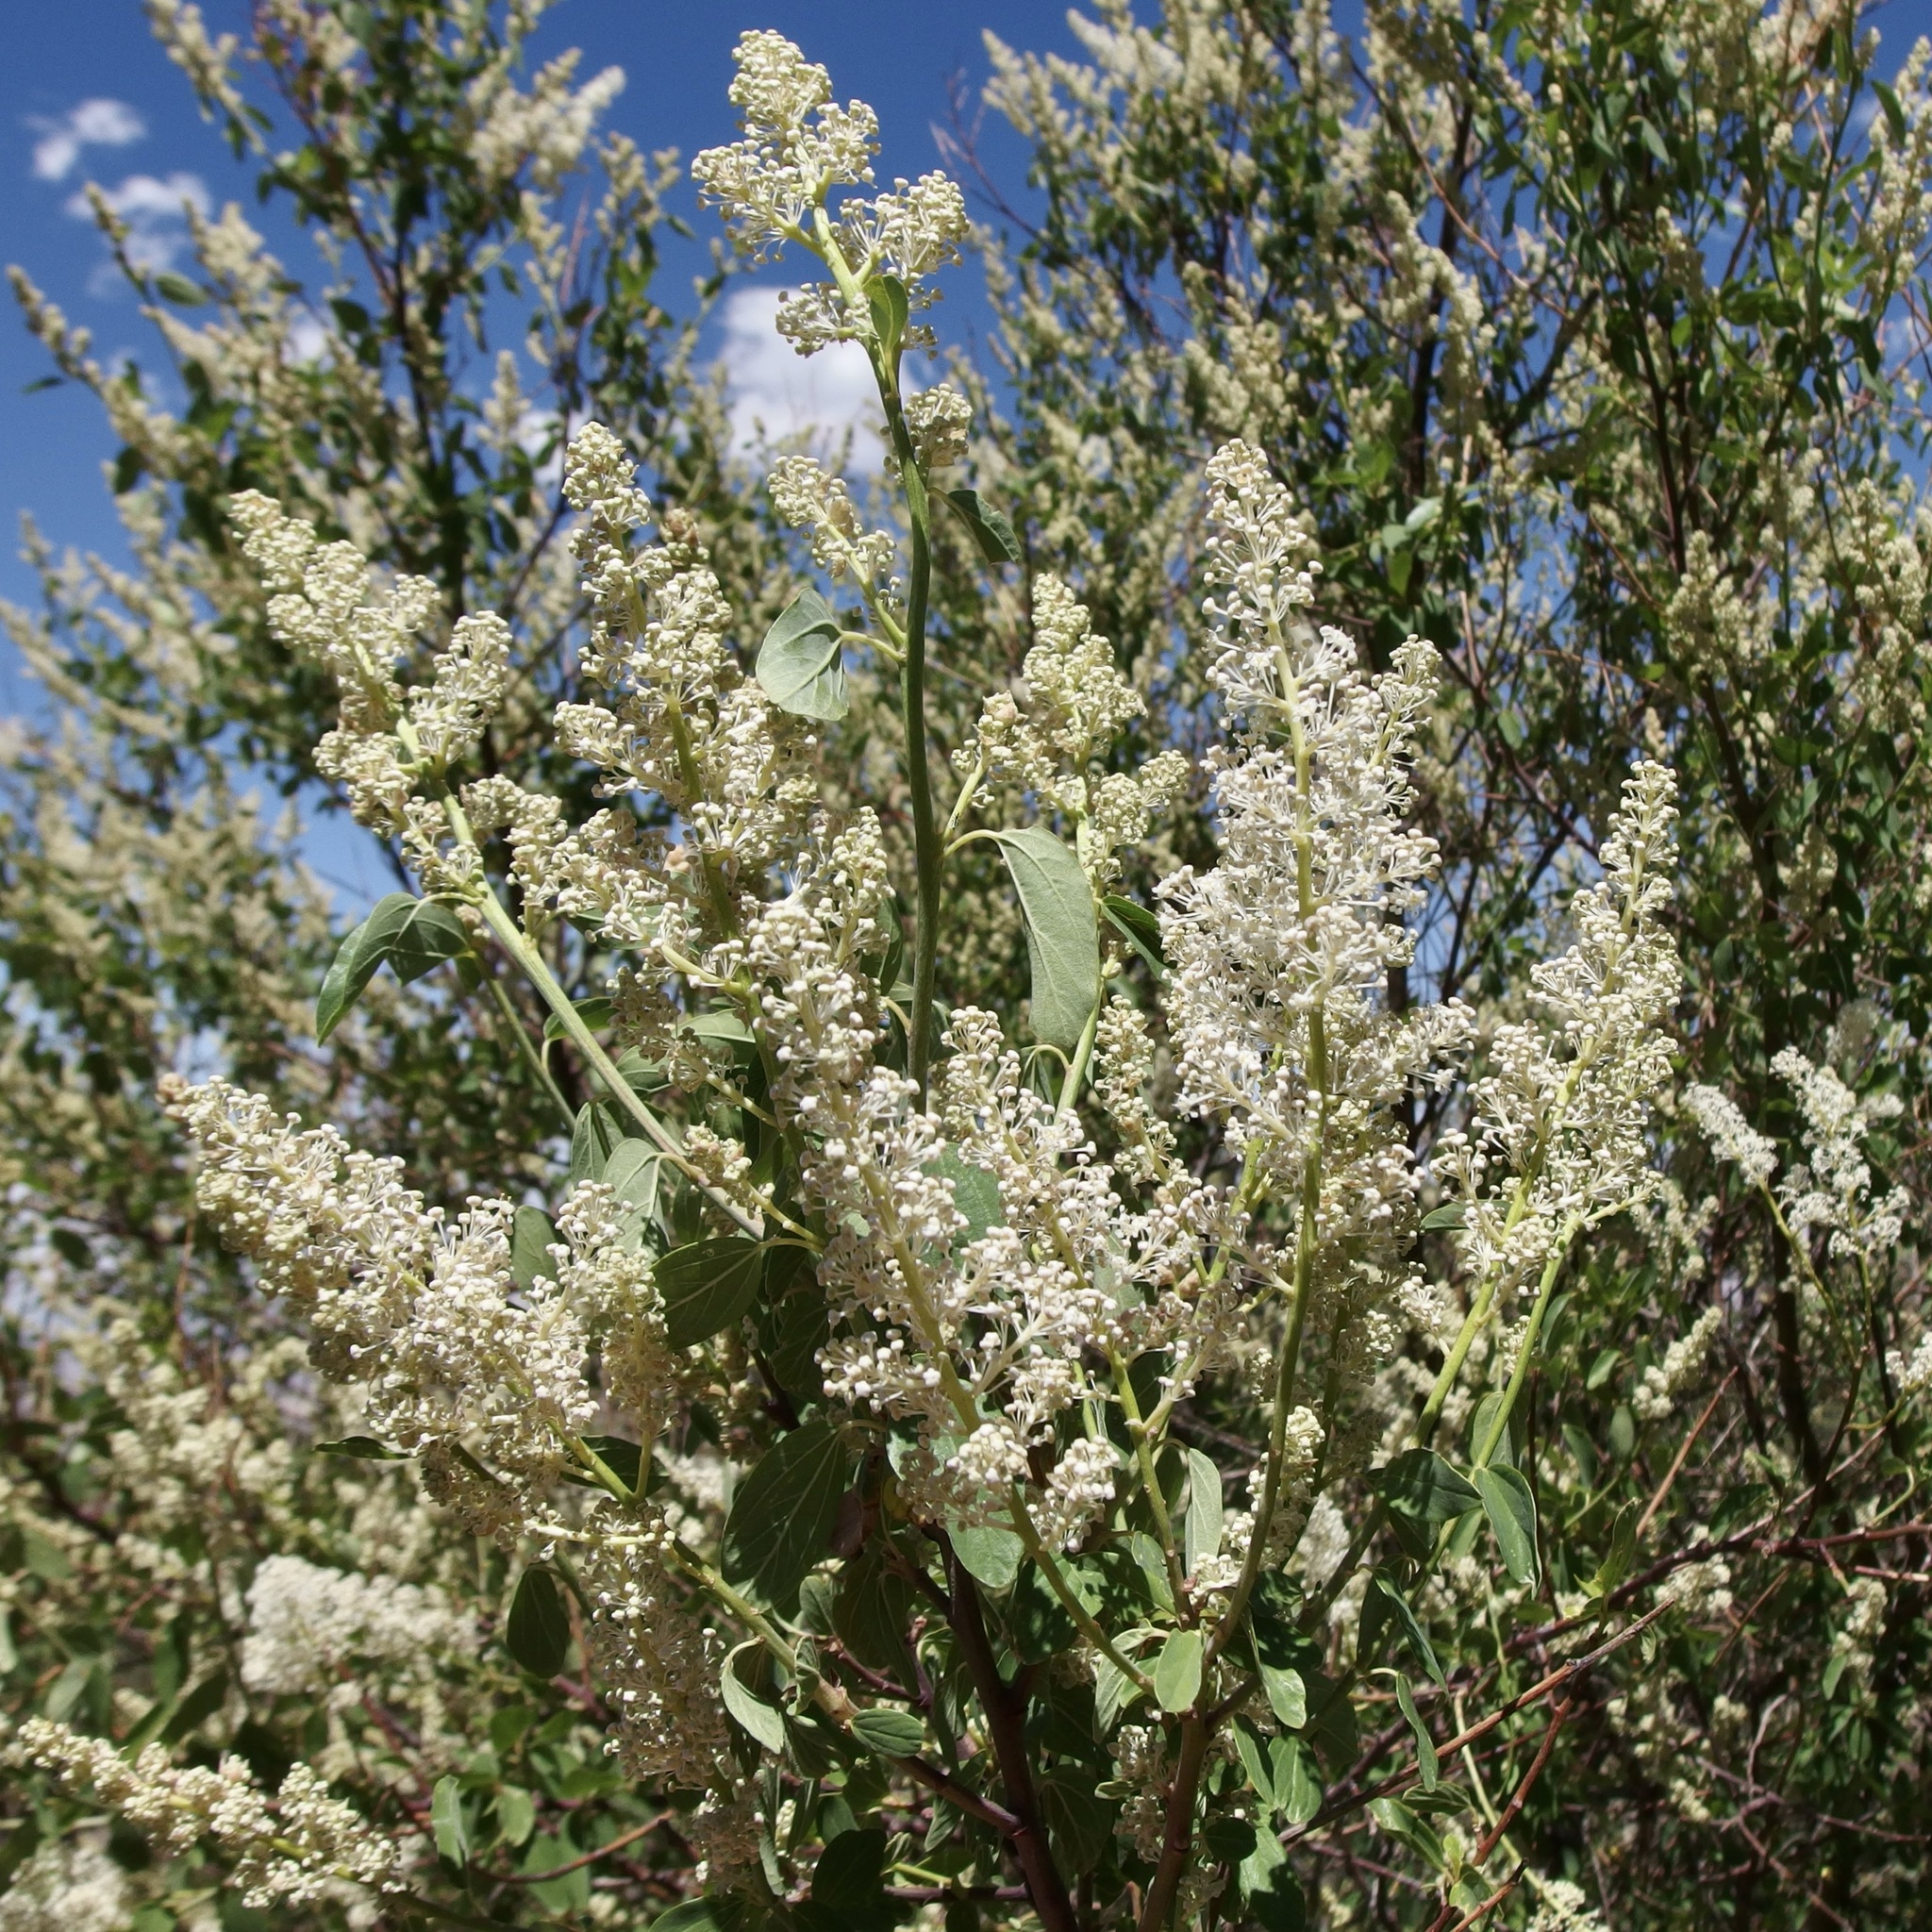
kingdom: Plantae
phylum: Tracheophyta
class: Magnoliopsida
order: Rosales
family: Rhamnaceae
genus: Ceanothus
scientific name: Ceanothus integerrimus
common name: Deerbrush ceanothus
